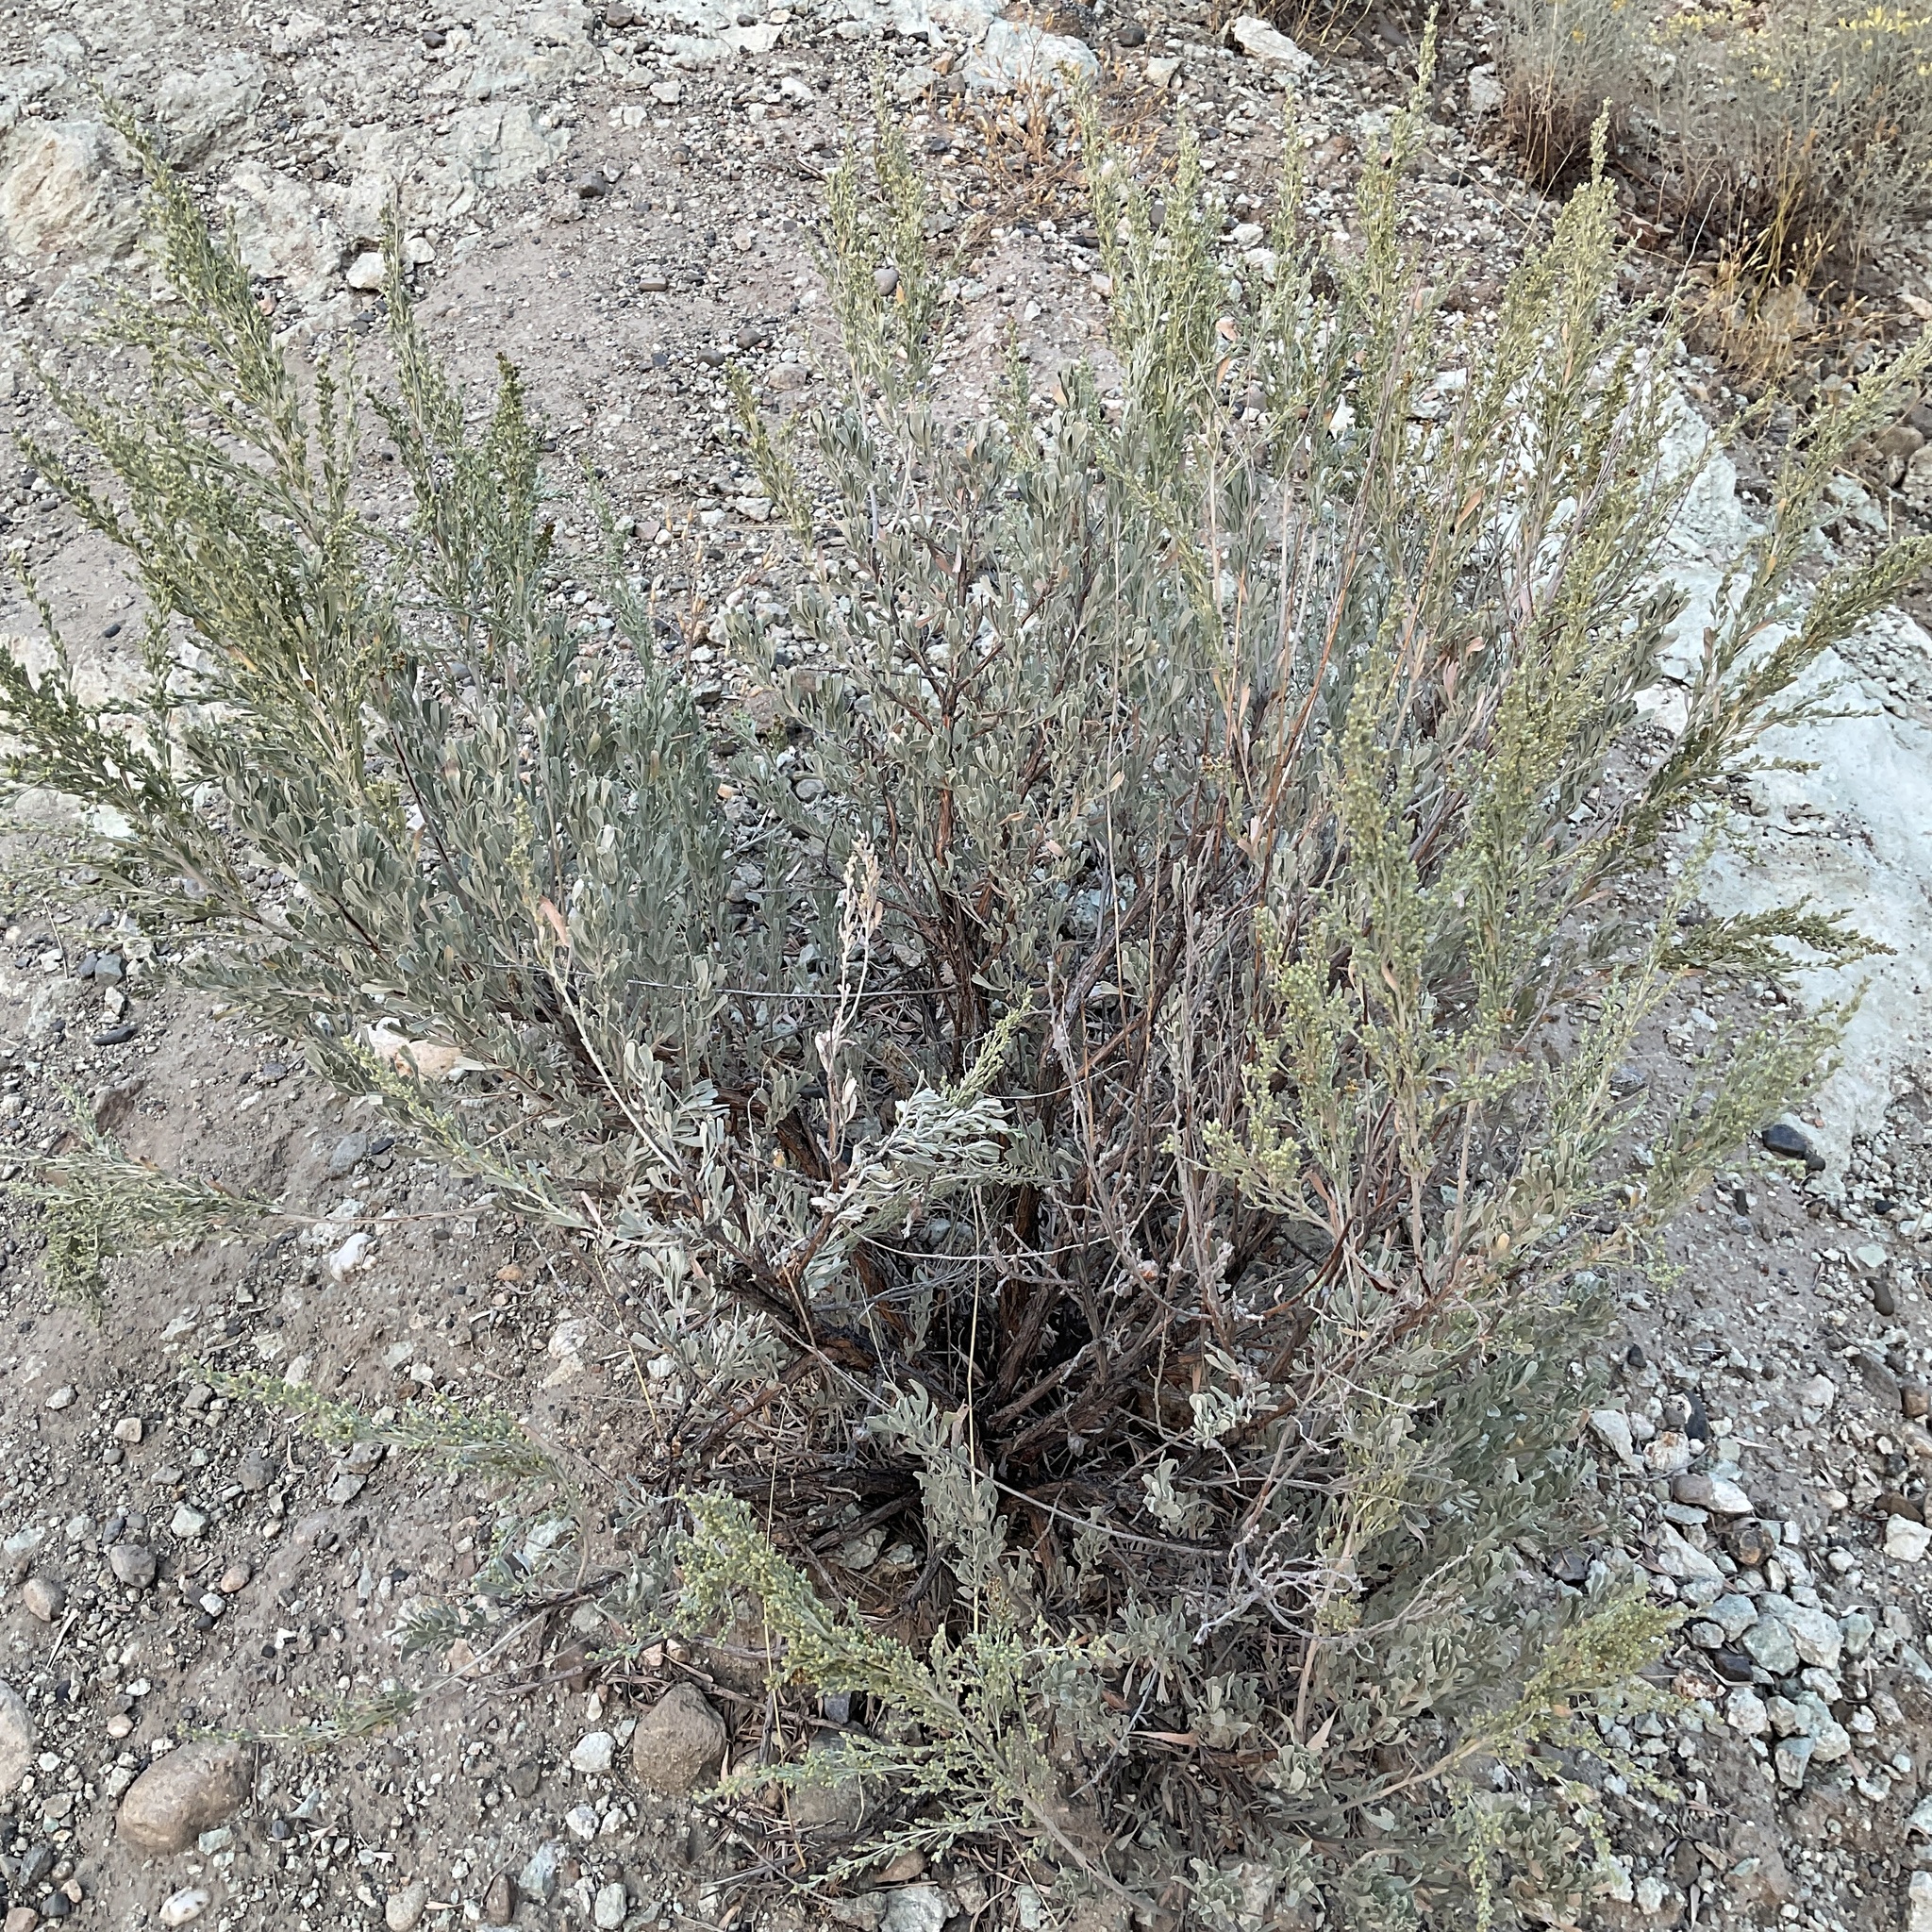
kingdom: Plantae
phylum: Tracheophyta
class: Magnoliopsida
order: Asterales
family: Asteraceae
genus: Artemisia
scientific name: Artemisia tridentata
